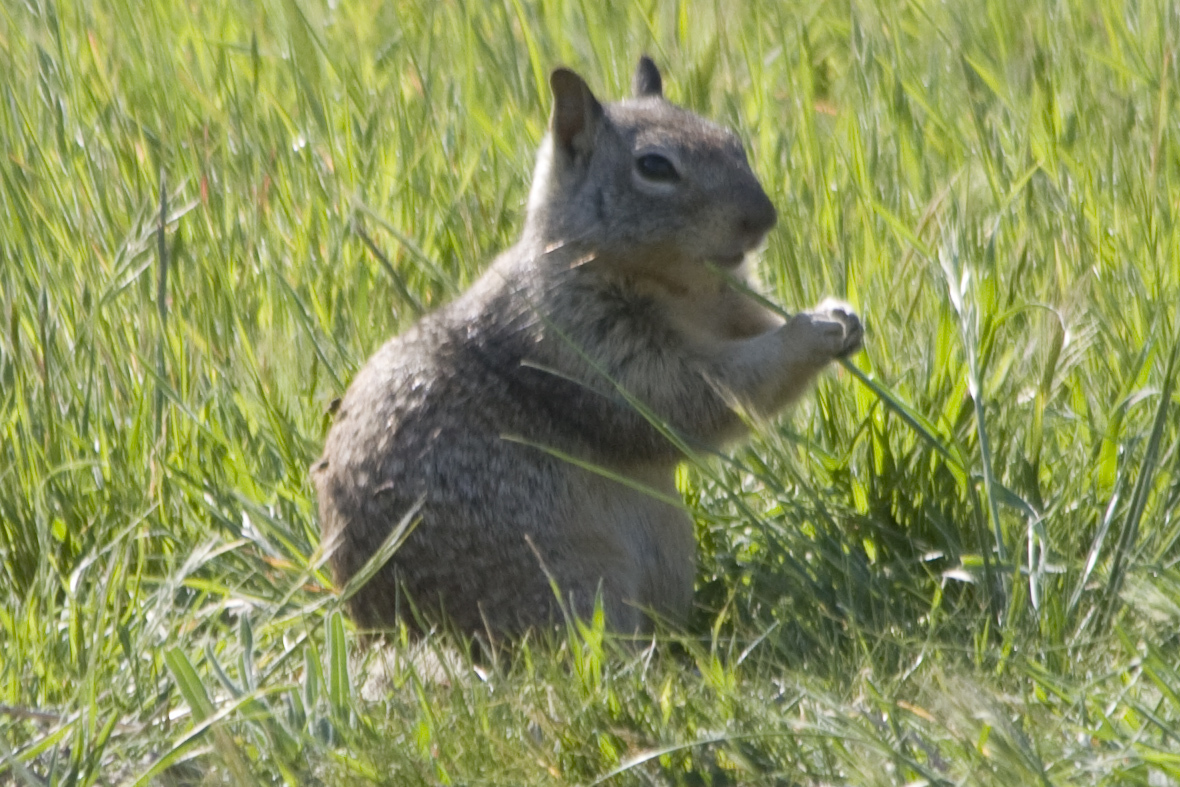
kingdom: Animalia
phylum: Chordata
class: Mammalia
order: Rodentia
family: Sciuridae
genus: Otospermophilus
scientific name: Otospermophilus beecheyi
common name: California ground squirrel
